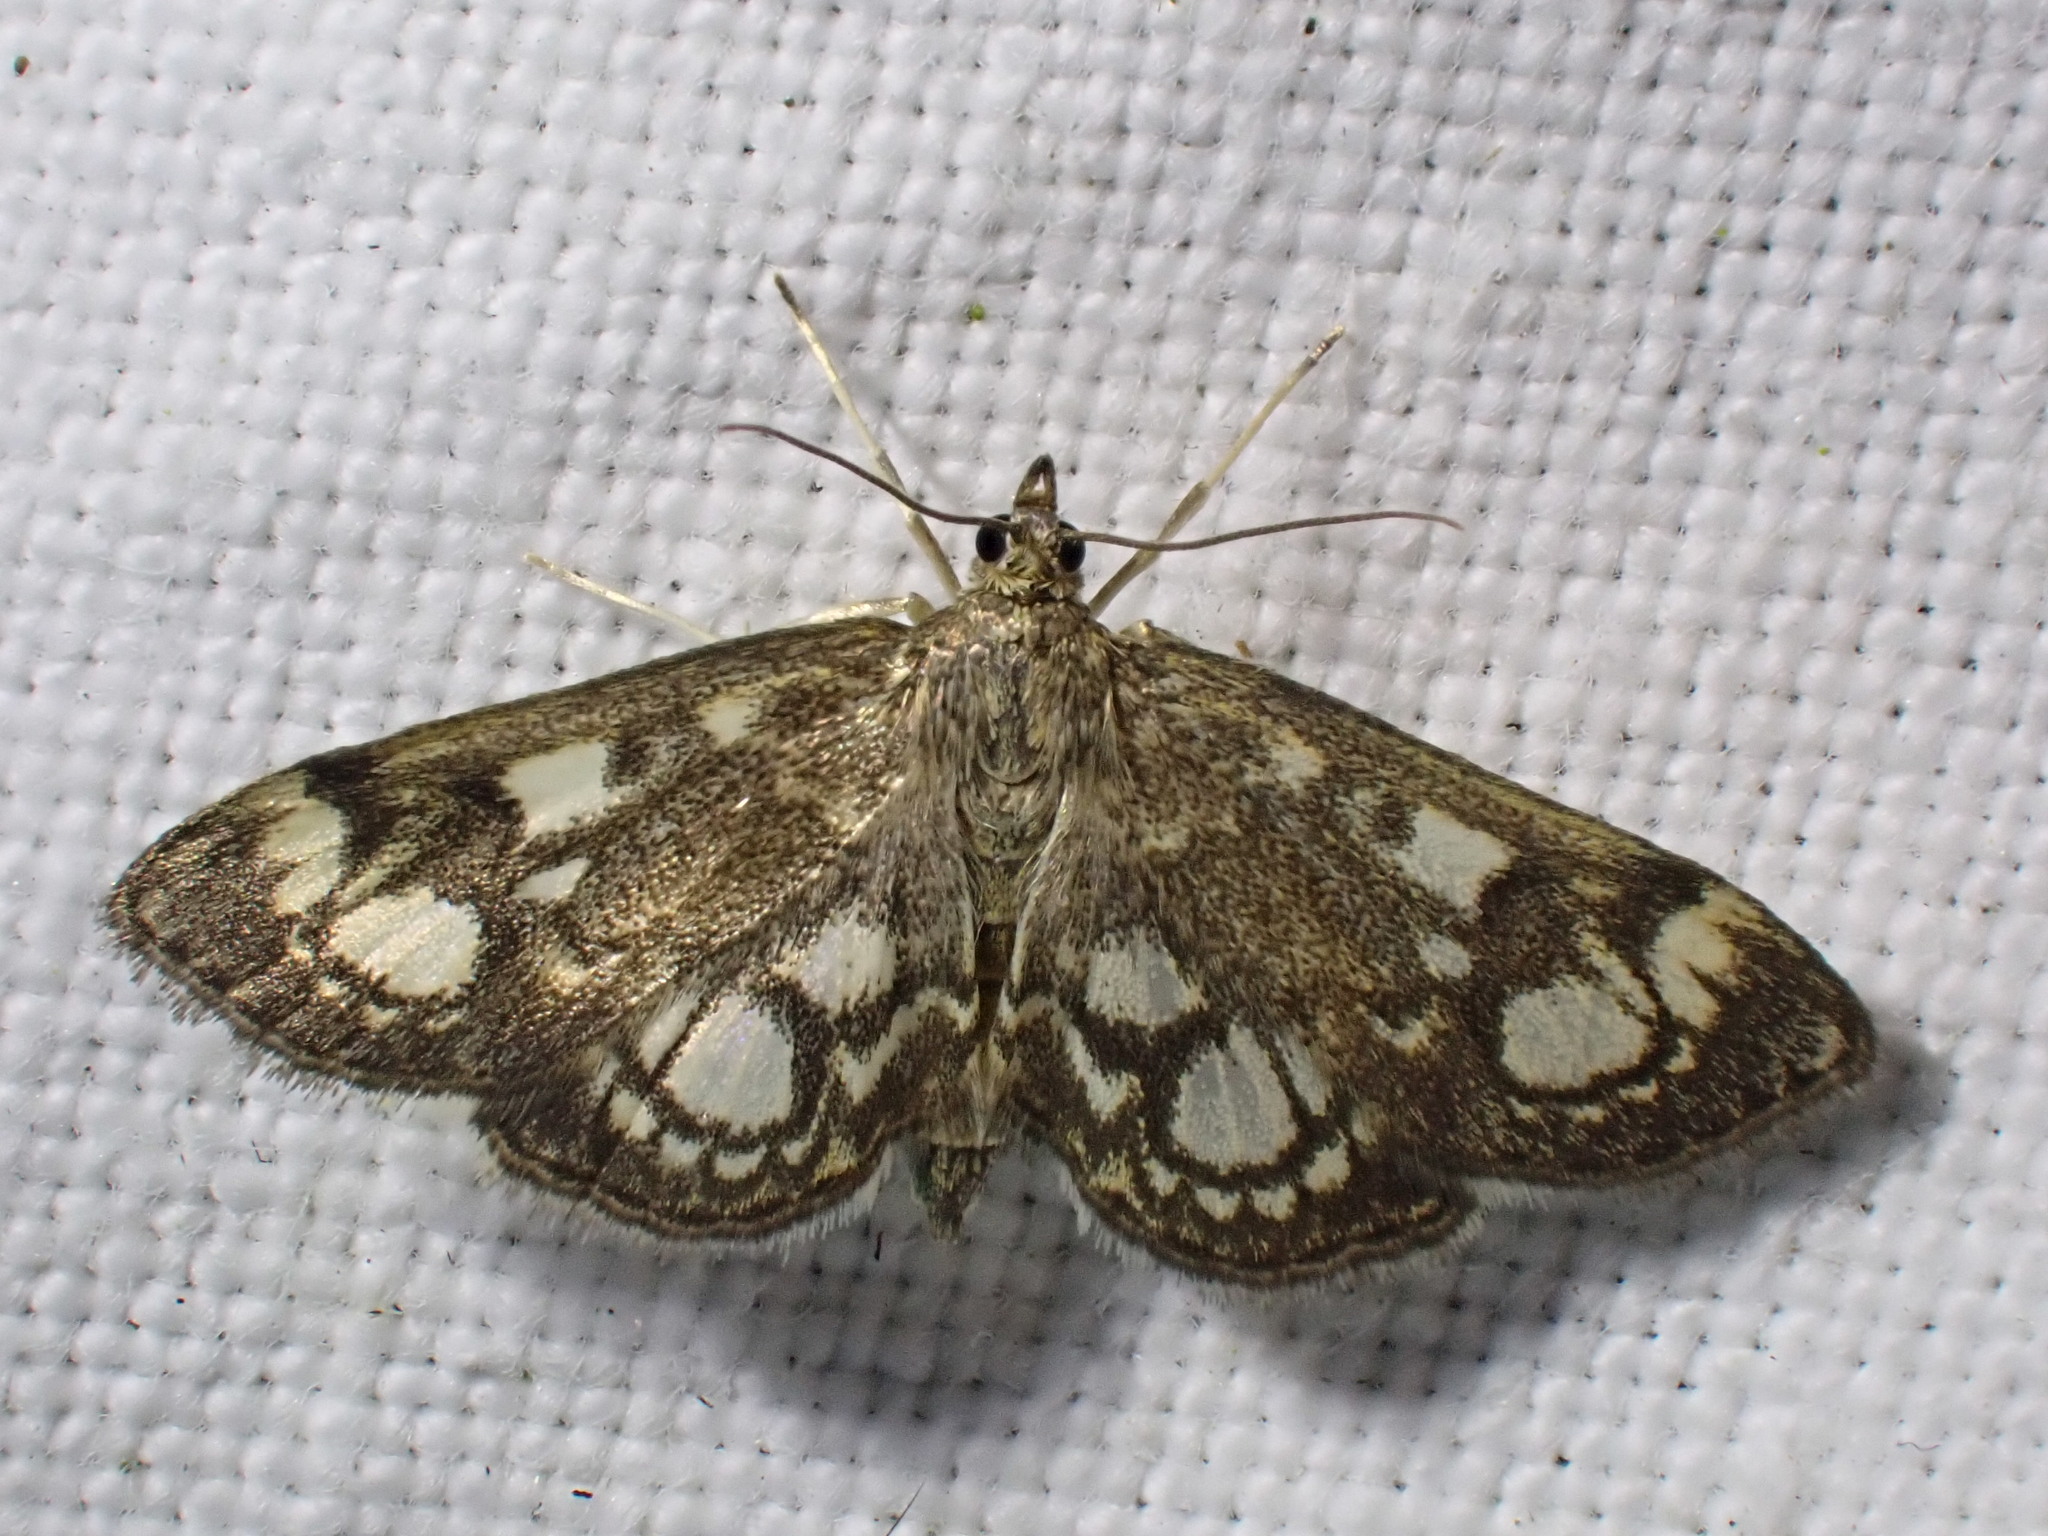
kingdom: Animalia
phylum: Arthropoda
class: Insecta
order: Lepidoptera
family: Crambidae
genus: Anania
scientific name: Anania coronata
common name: Elder pearl
